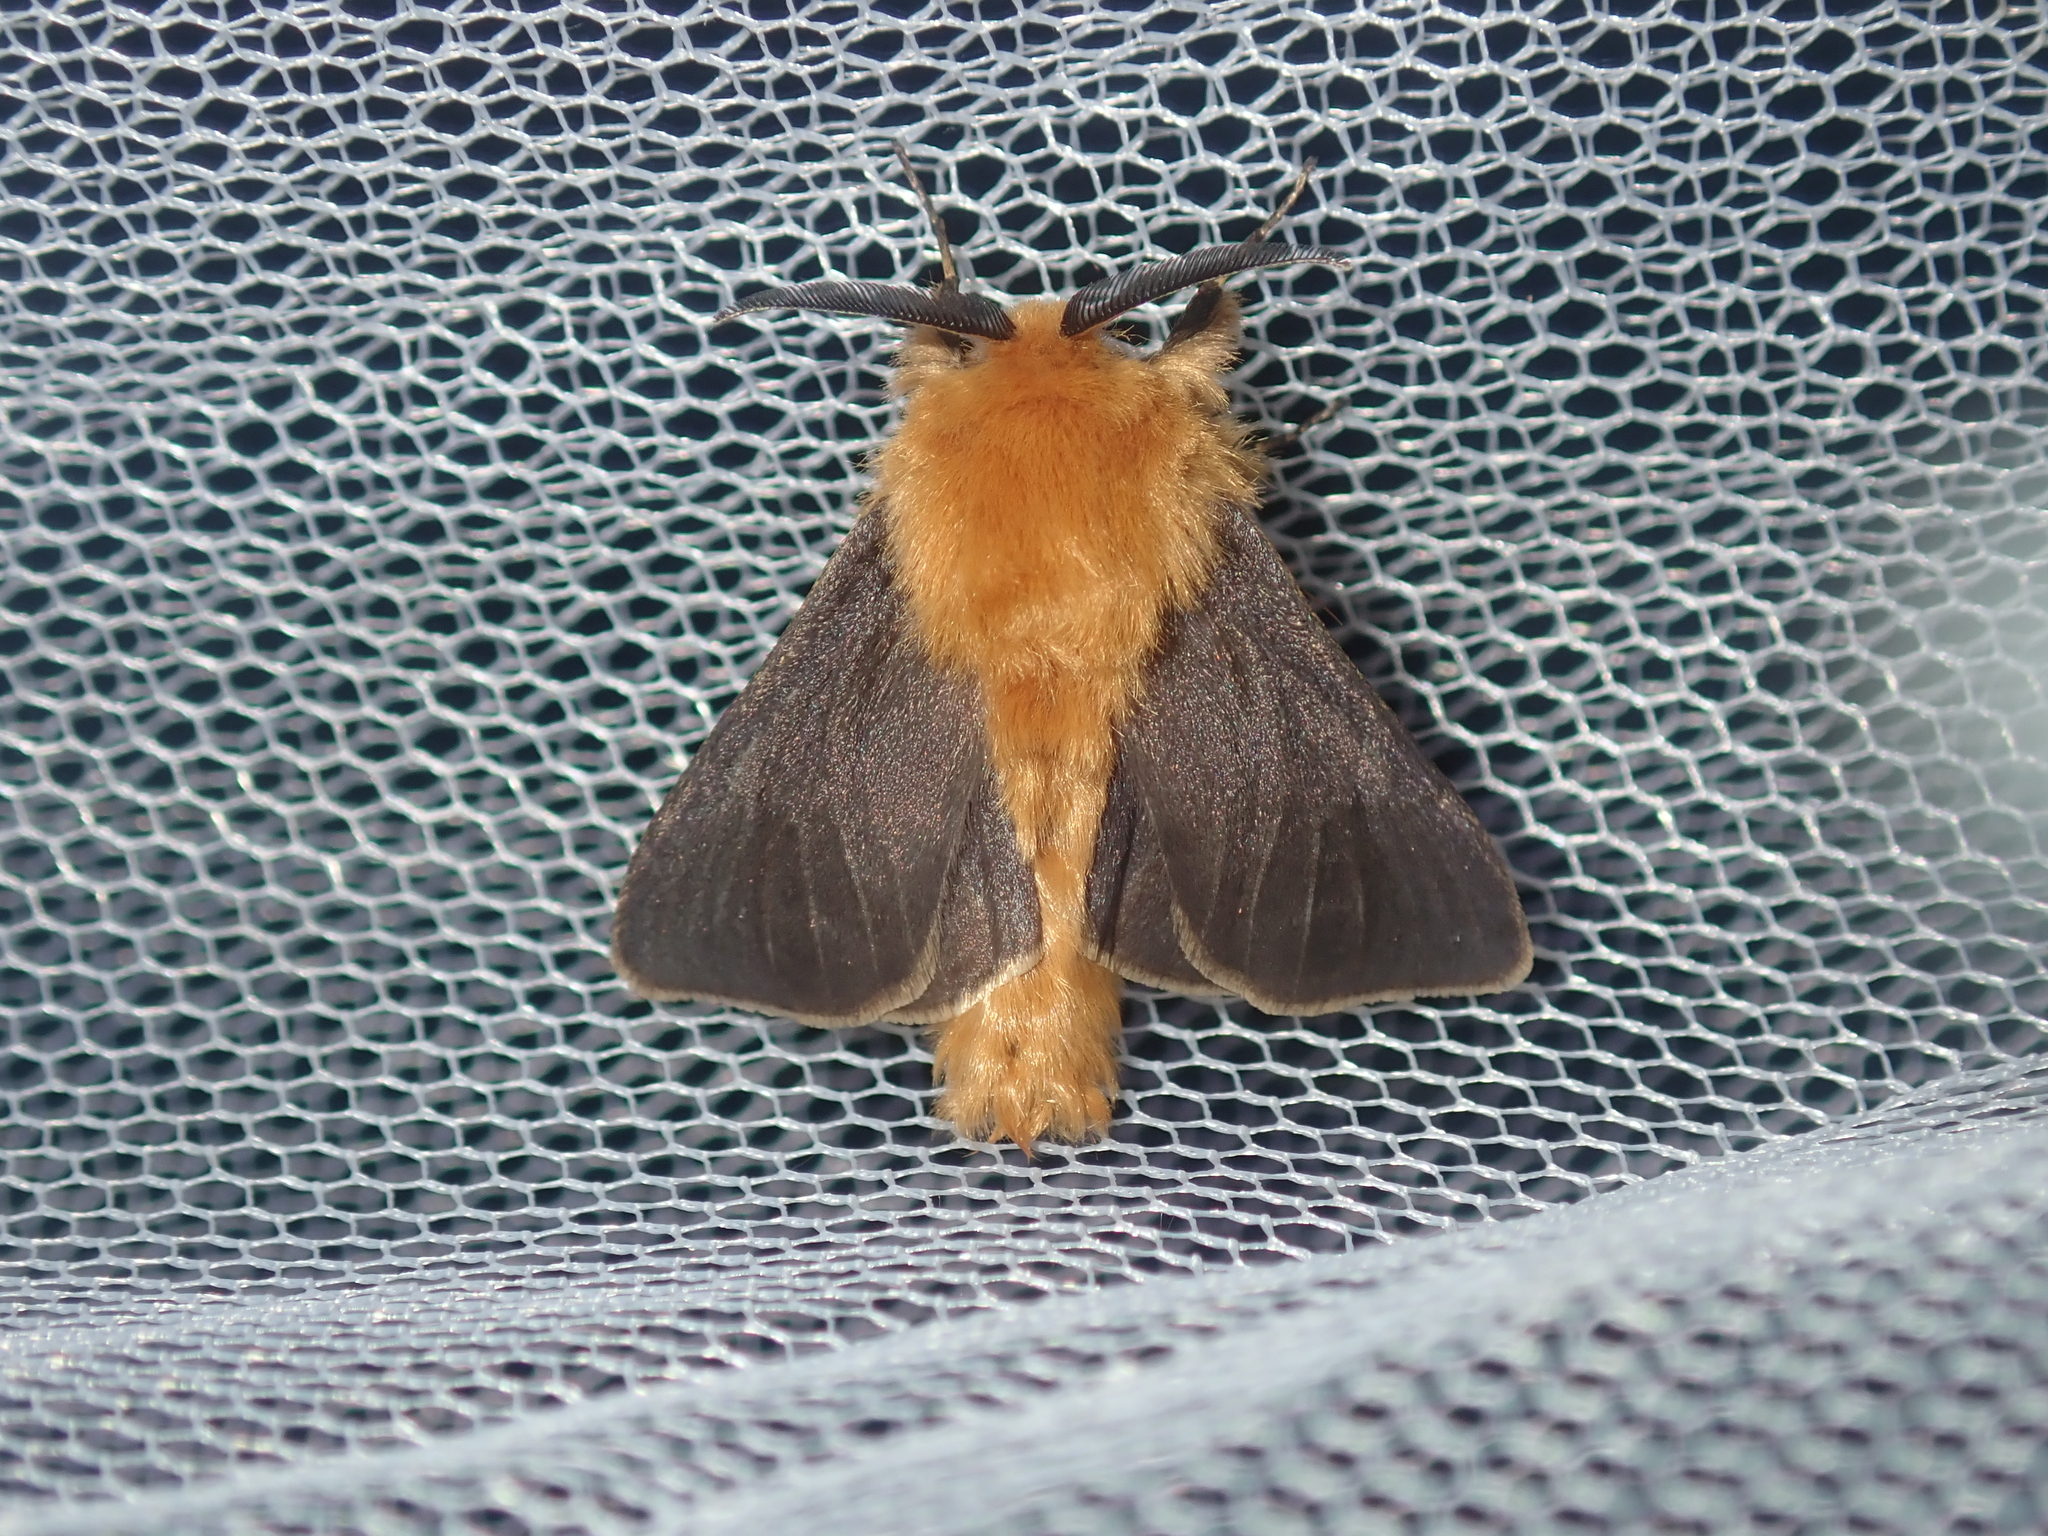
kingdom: Animalia
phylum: Arthropoda
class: Insecta
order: Lepidoptera
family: Psychidae
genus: Lomera
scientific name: Lomera
